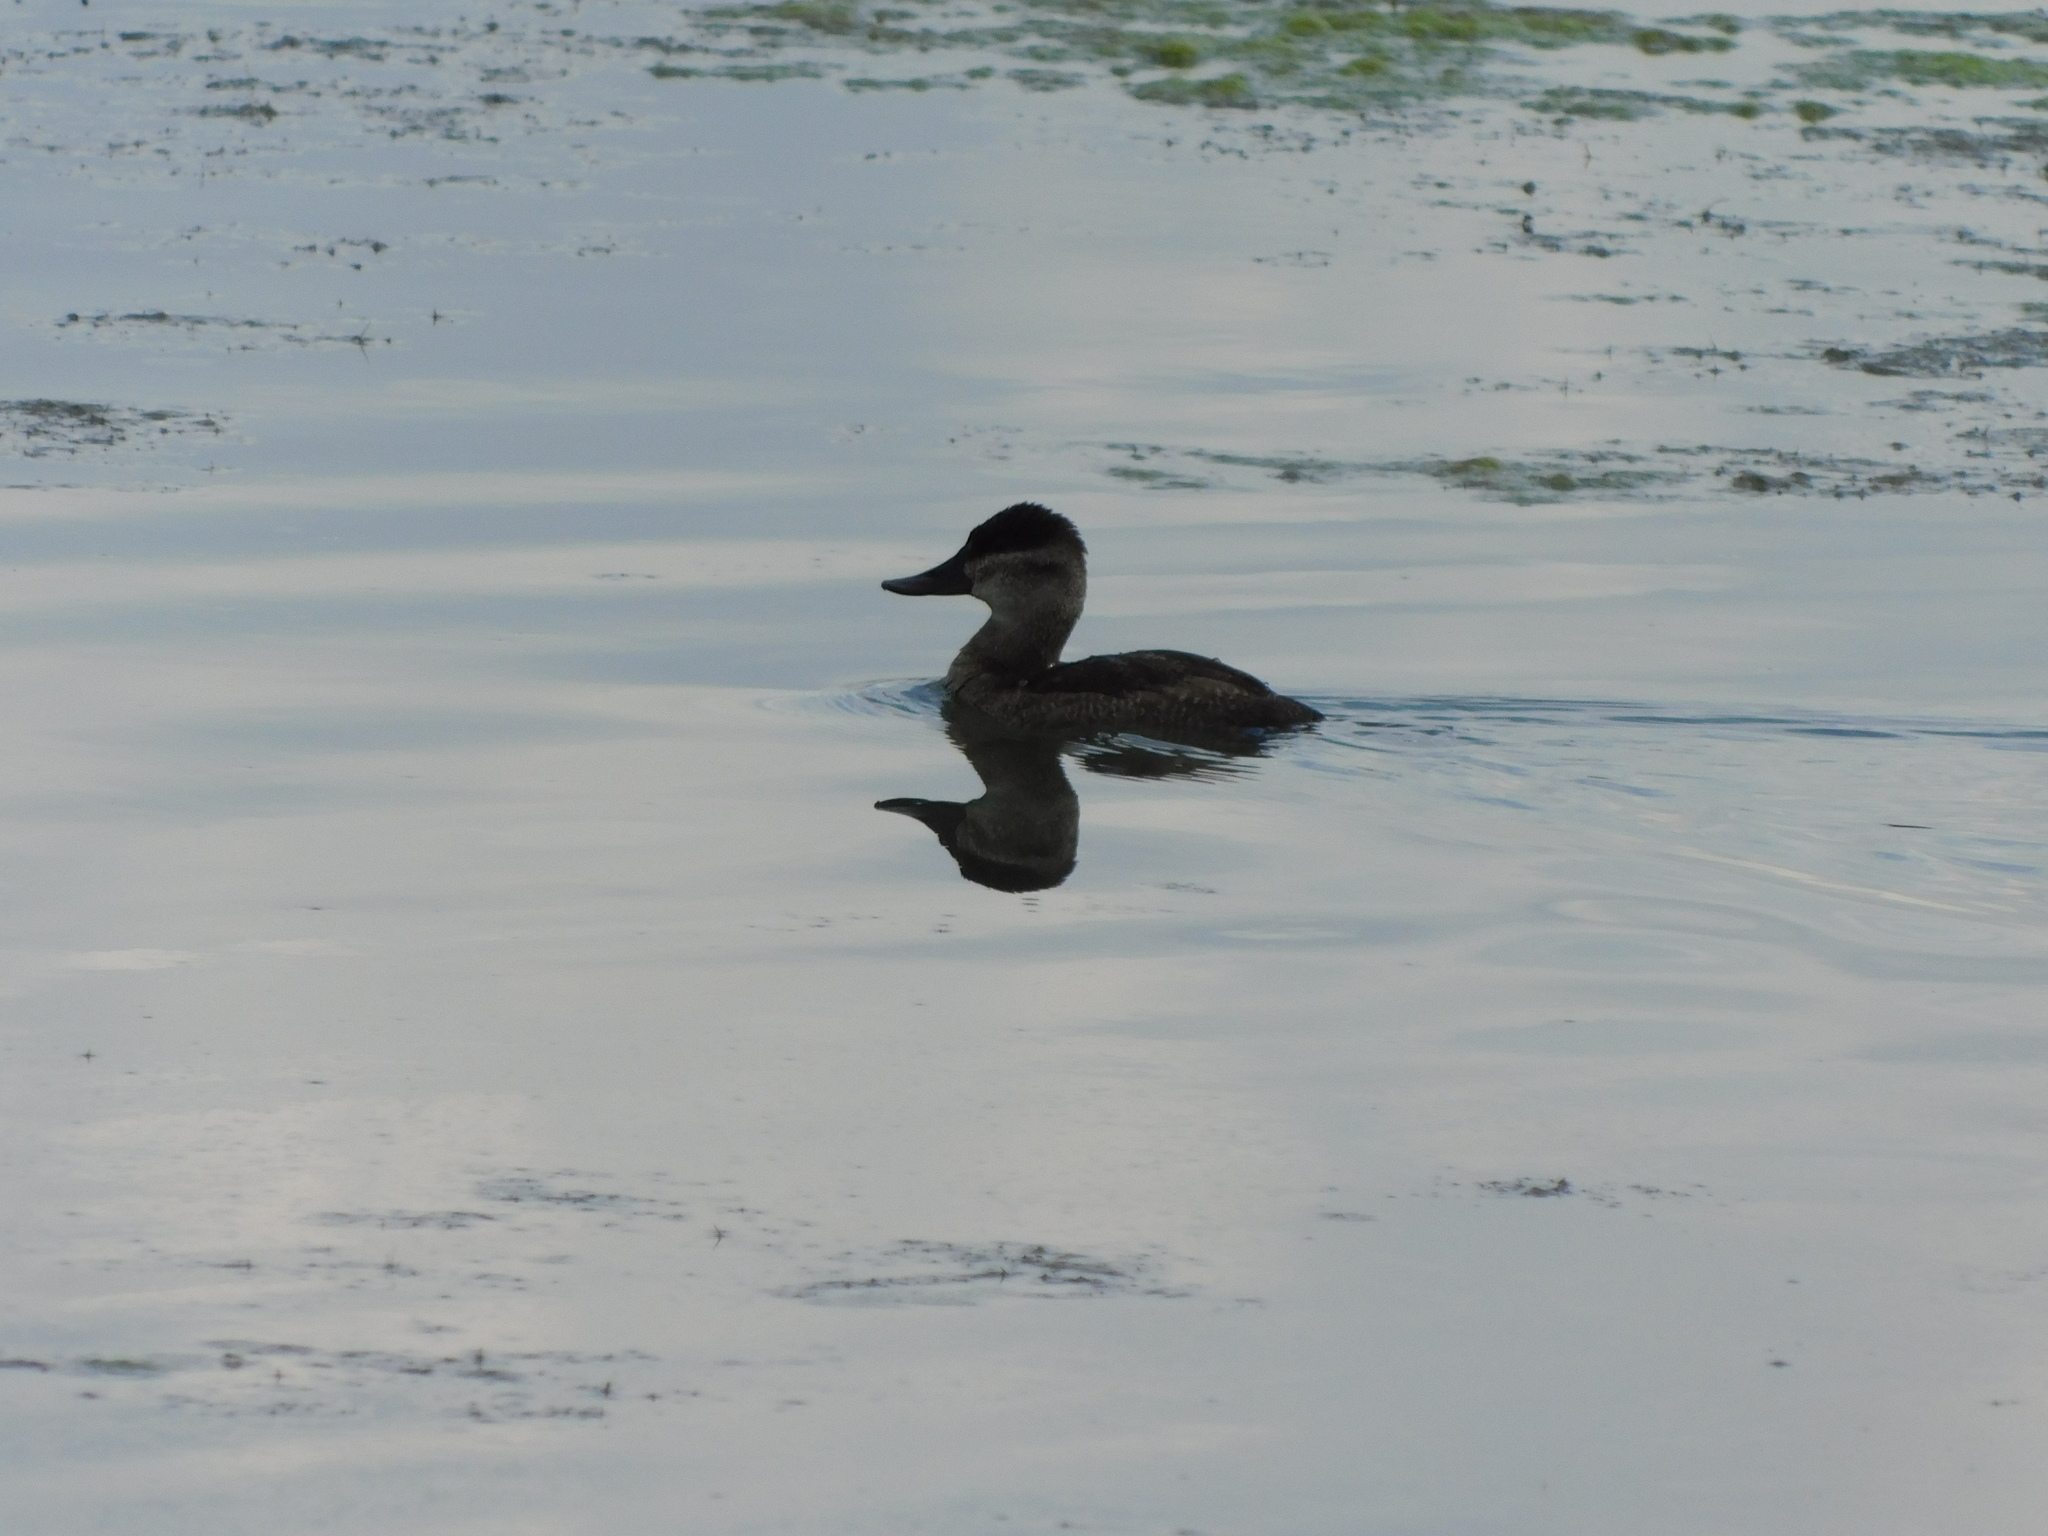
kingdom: Animalia
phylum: Chordata
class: Aves
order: Anseriformes
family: Anatidae
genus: Oxyura
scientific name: Oxyura jamaicensis
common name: Ruddy duck
